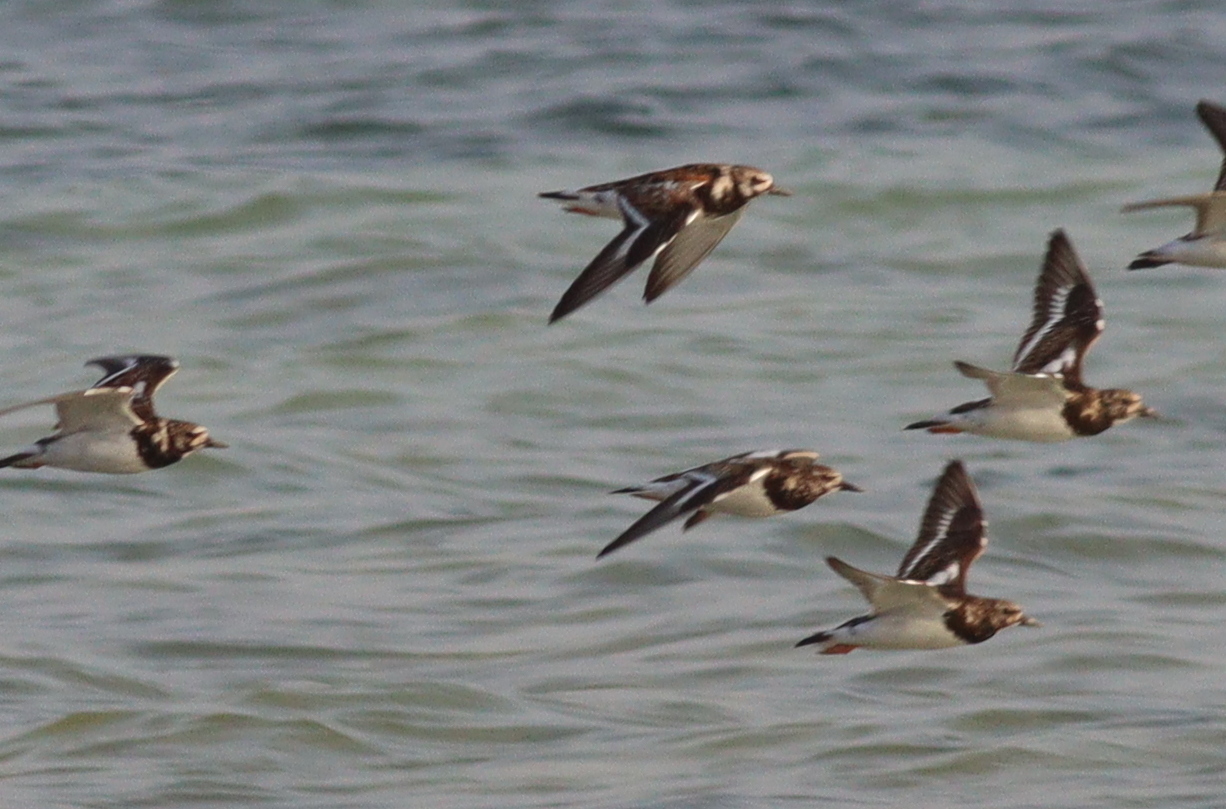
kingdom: Animalia
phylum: Chordata
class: Aves
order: Charadriiformes
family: Scolopacidae
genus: Arenaria
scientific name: Arenaria interpres
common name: Ruddy turnstone
